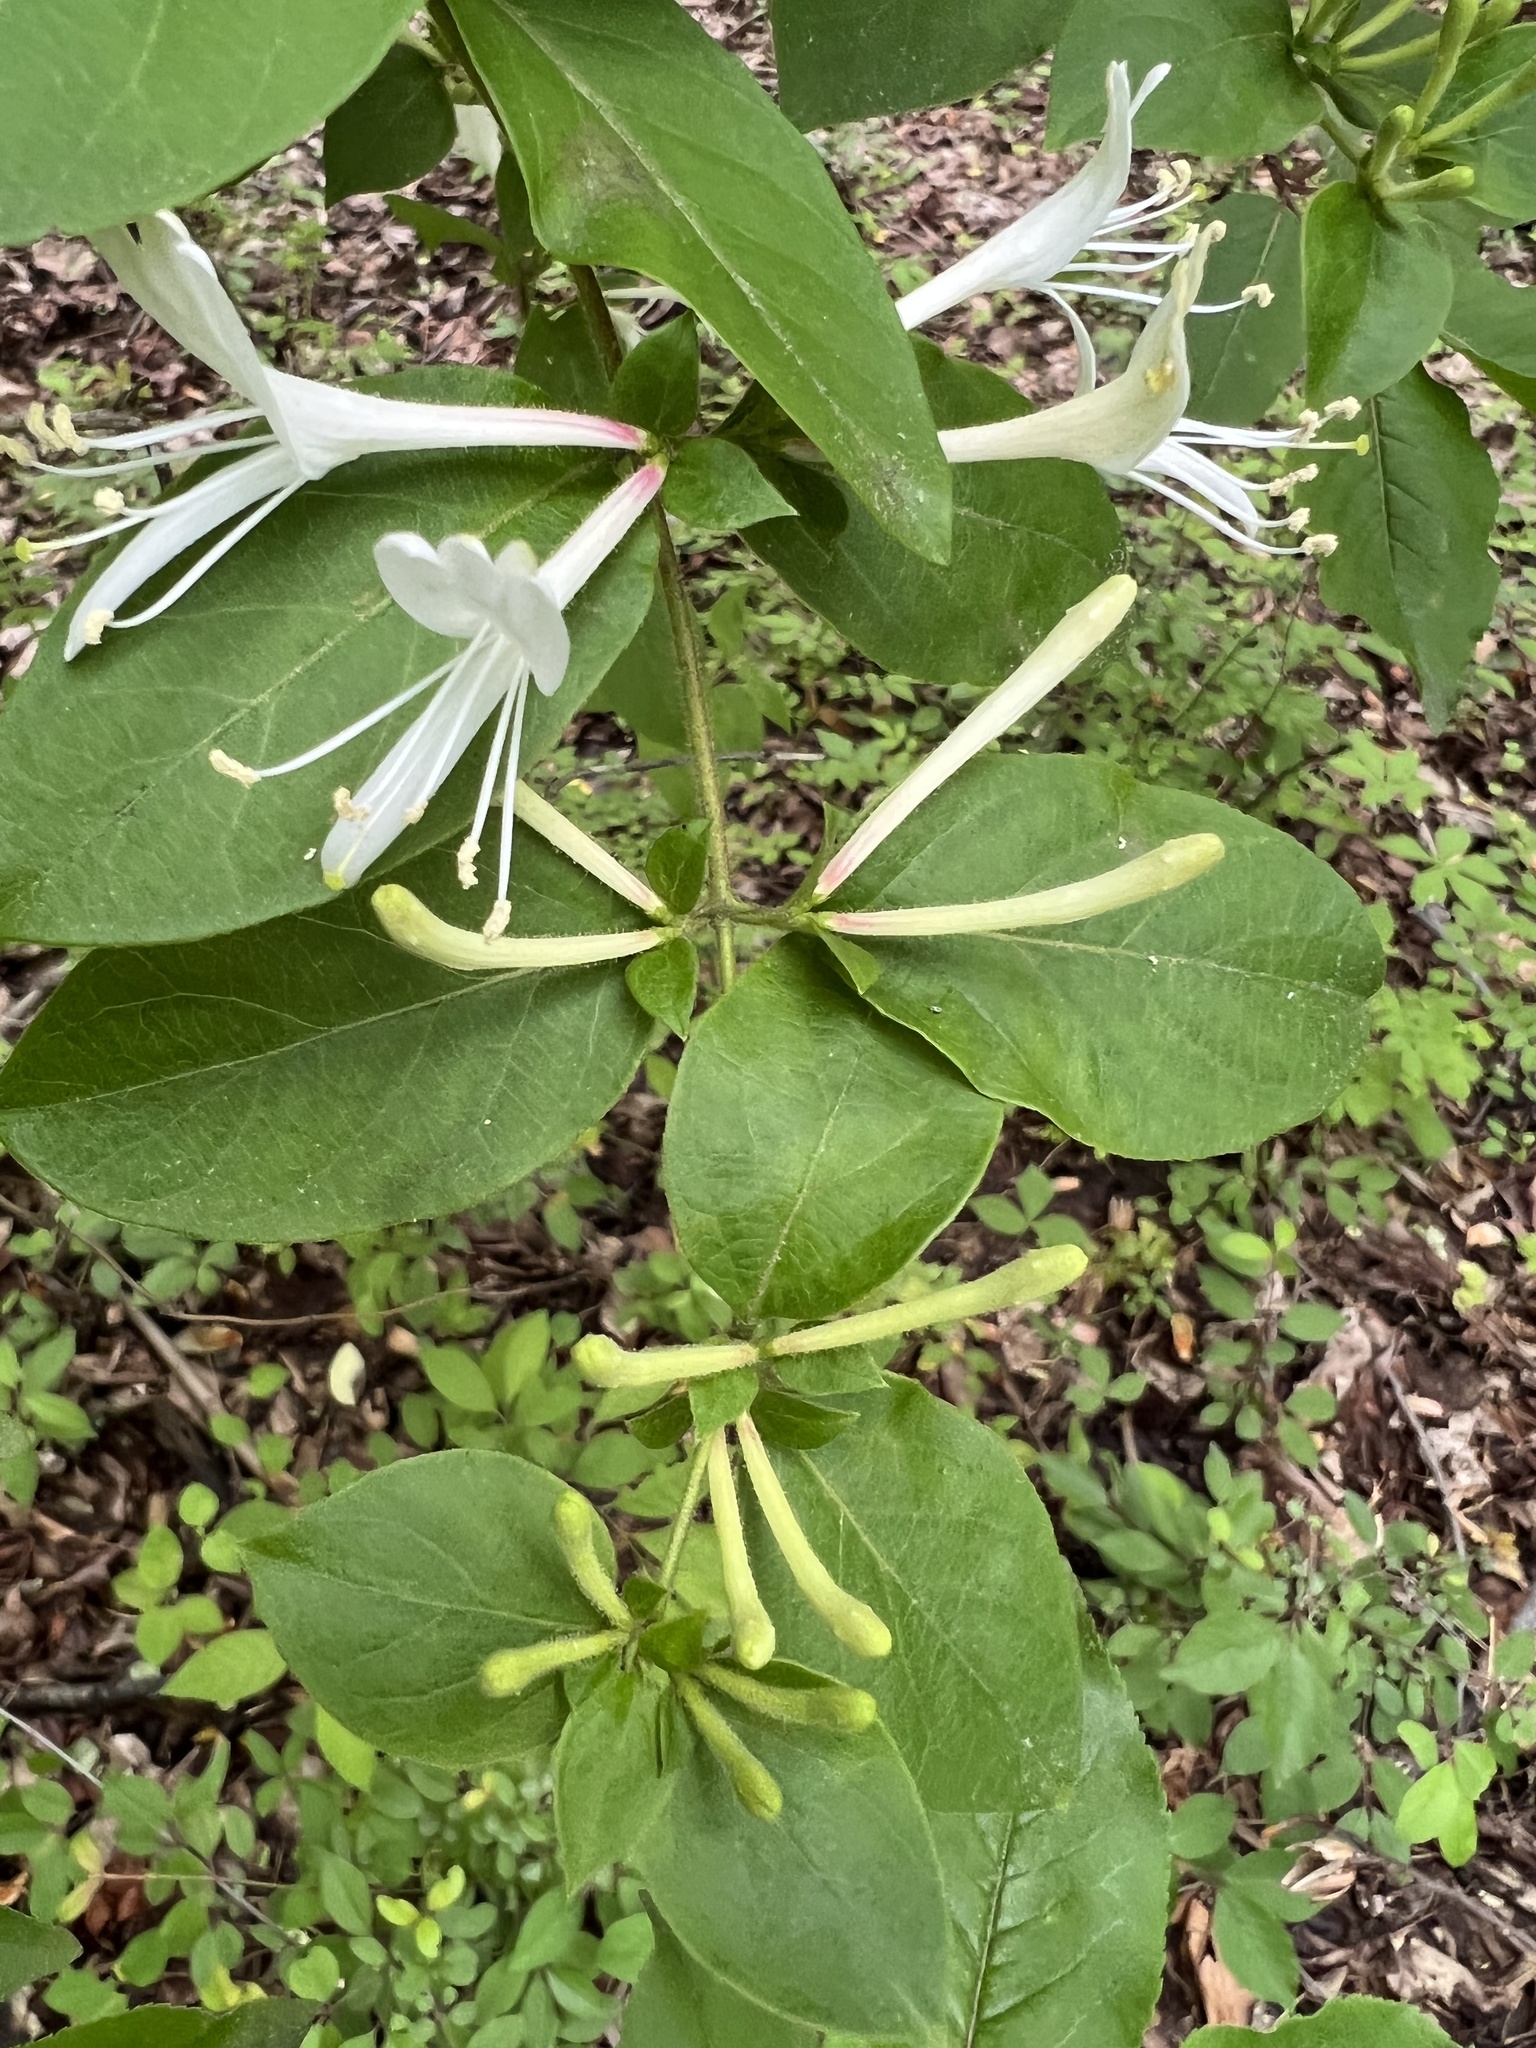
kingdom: Plantae
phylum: Tracheophyta
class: Magnoliopsida
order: Dipsacales
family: Caprifoliaceae
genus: Lonicera
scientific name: Lonicera japonica
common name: Japanese honeysuckle
